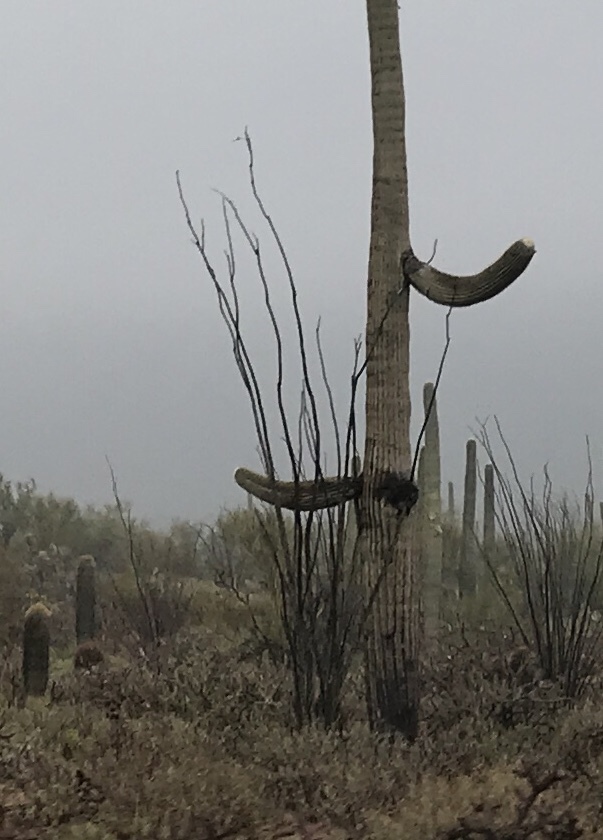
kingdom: Plantae
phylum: Tracheophyta
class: Magnoliopsida
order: Ericales
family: Fouquieriaceae
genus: Fouquieria
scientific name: Fouquieria splendens
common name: Vine-cactus
